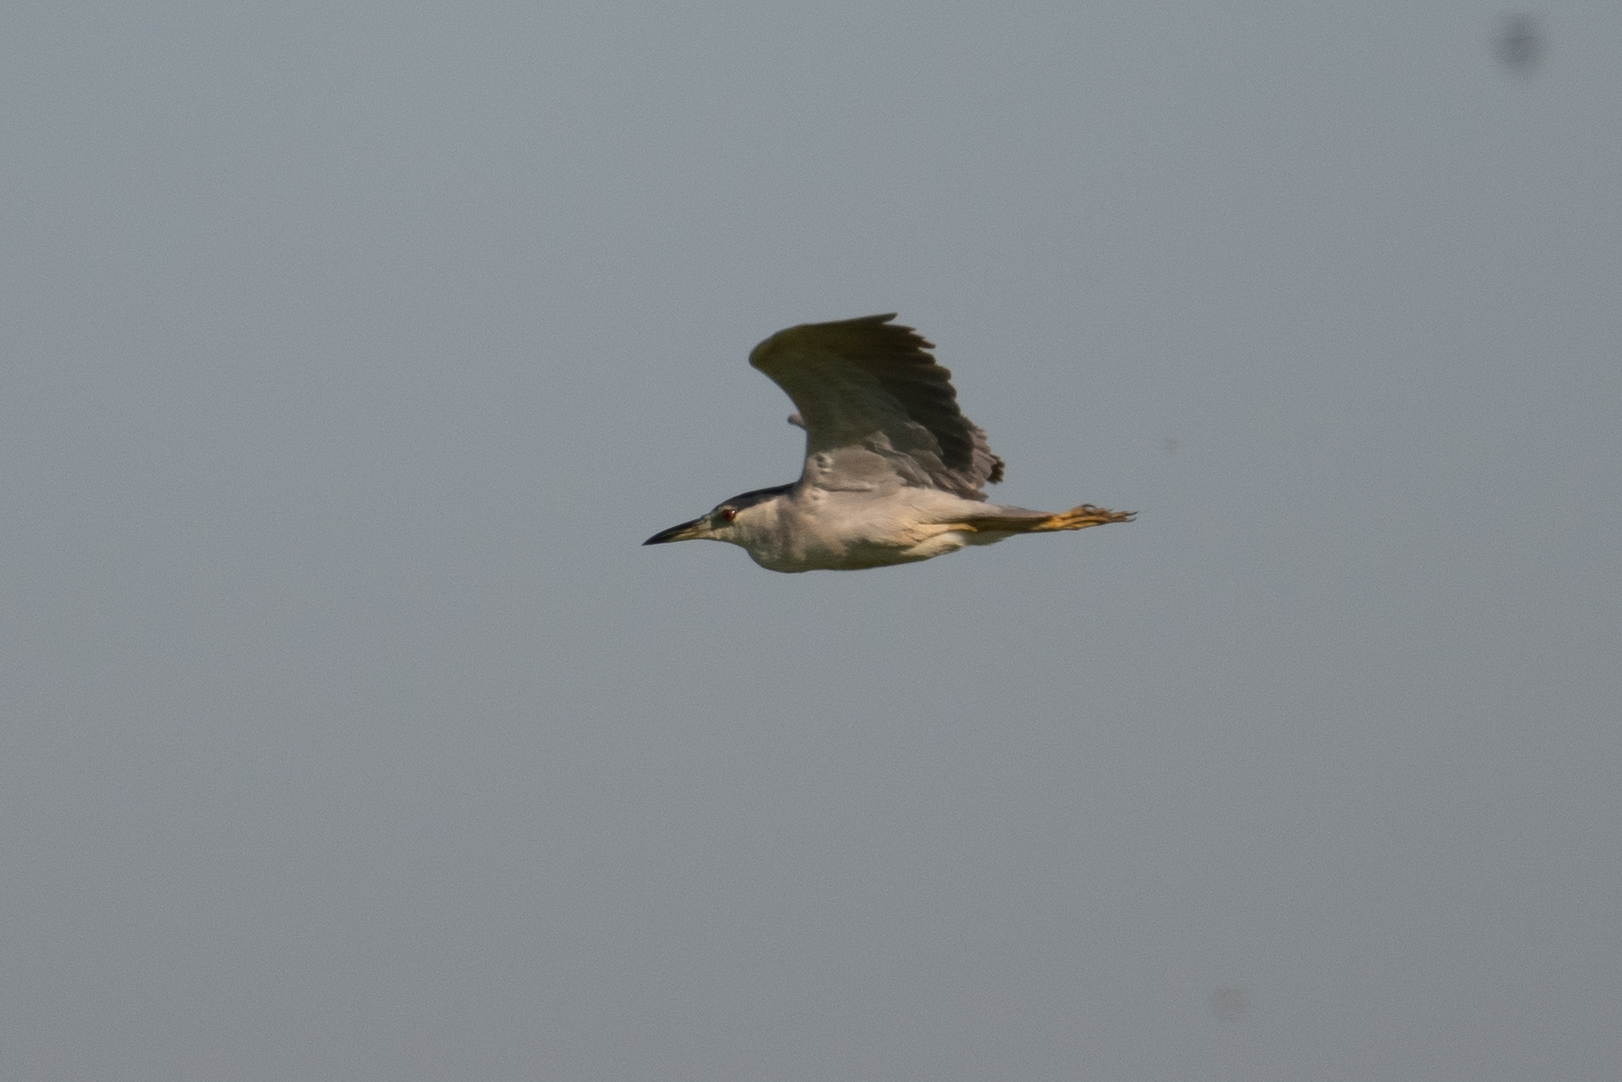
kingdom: Animalia
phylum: Chordata
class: Aves
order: Pelecaniformes
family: Ardeidae
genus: Nycticorax
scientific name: Nycticorax nycticorax
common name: Black-crowned night heron
